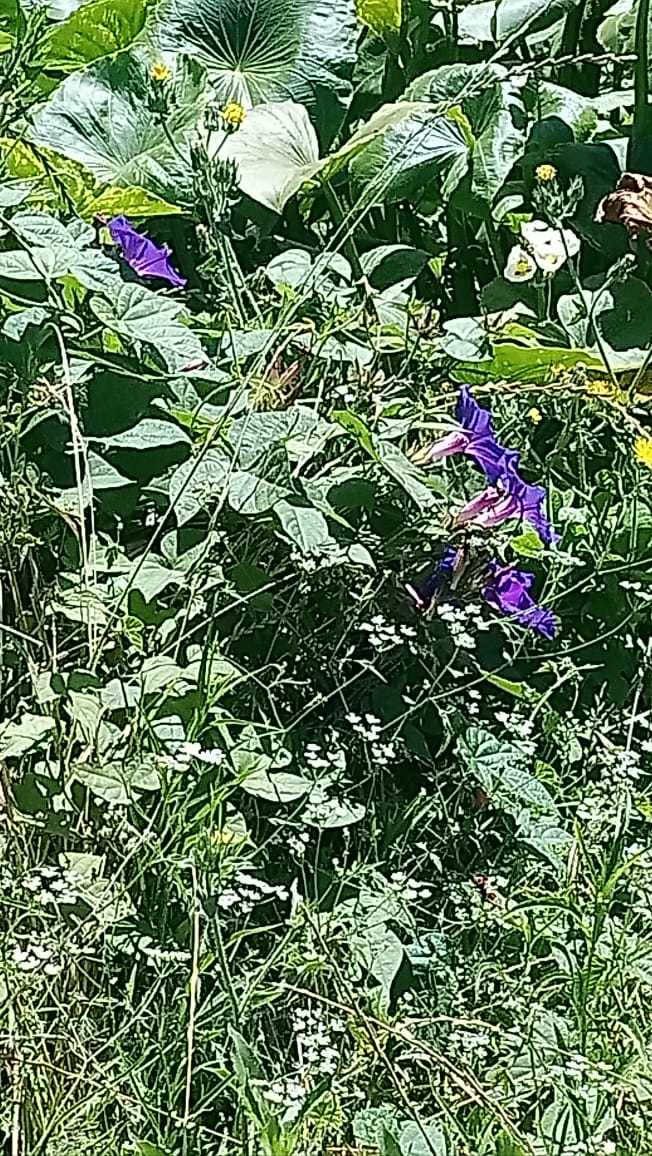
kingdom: Plantae
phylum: Tracheophyta
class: Magnoliopsida
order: Solanales
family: Convolvulaceae
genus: Ipomoea
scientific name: Ipomoea indica
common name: Blue dawnflower
